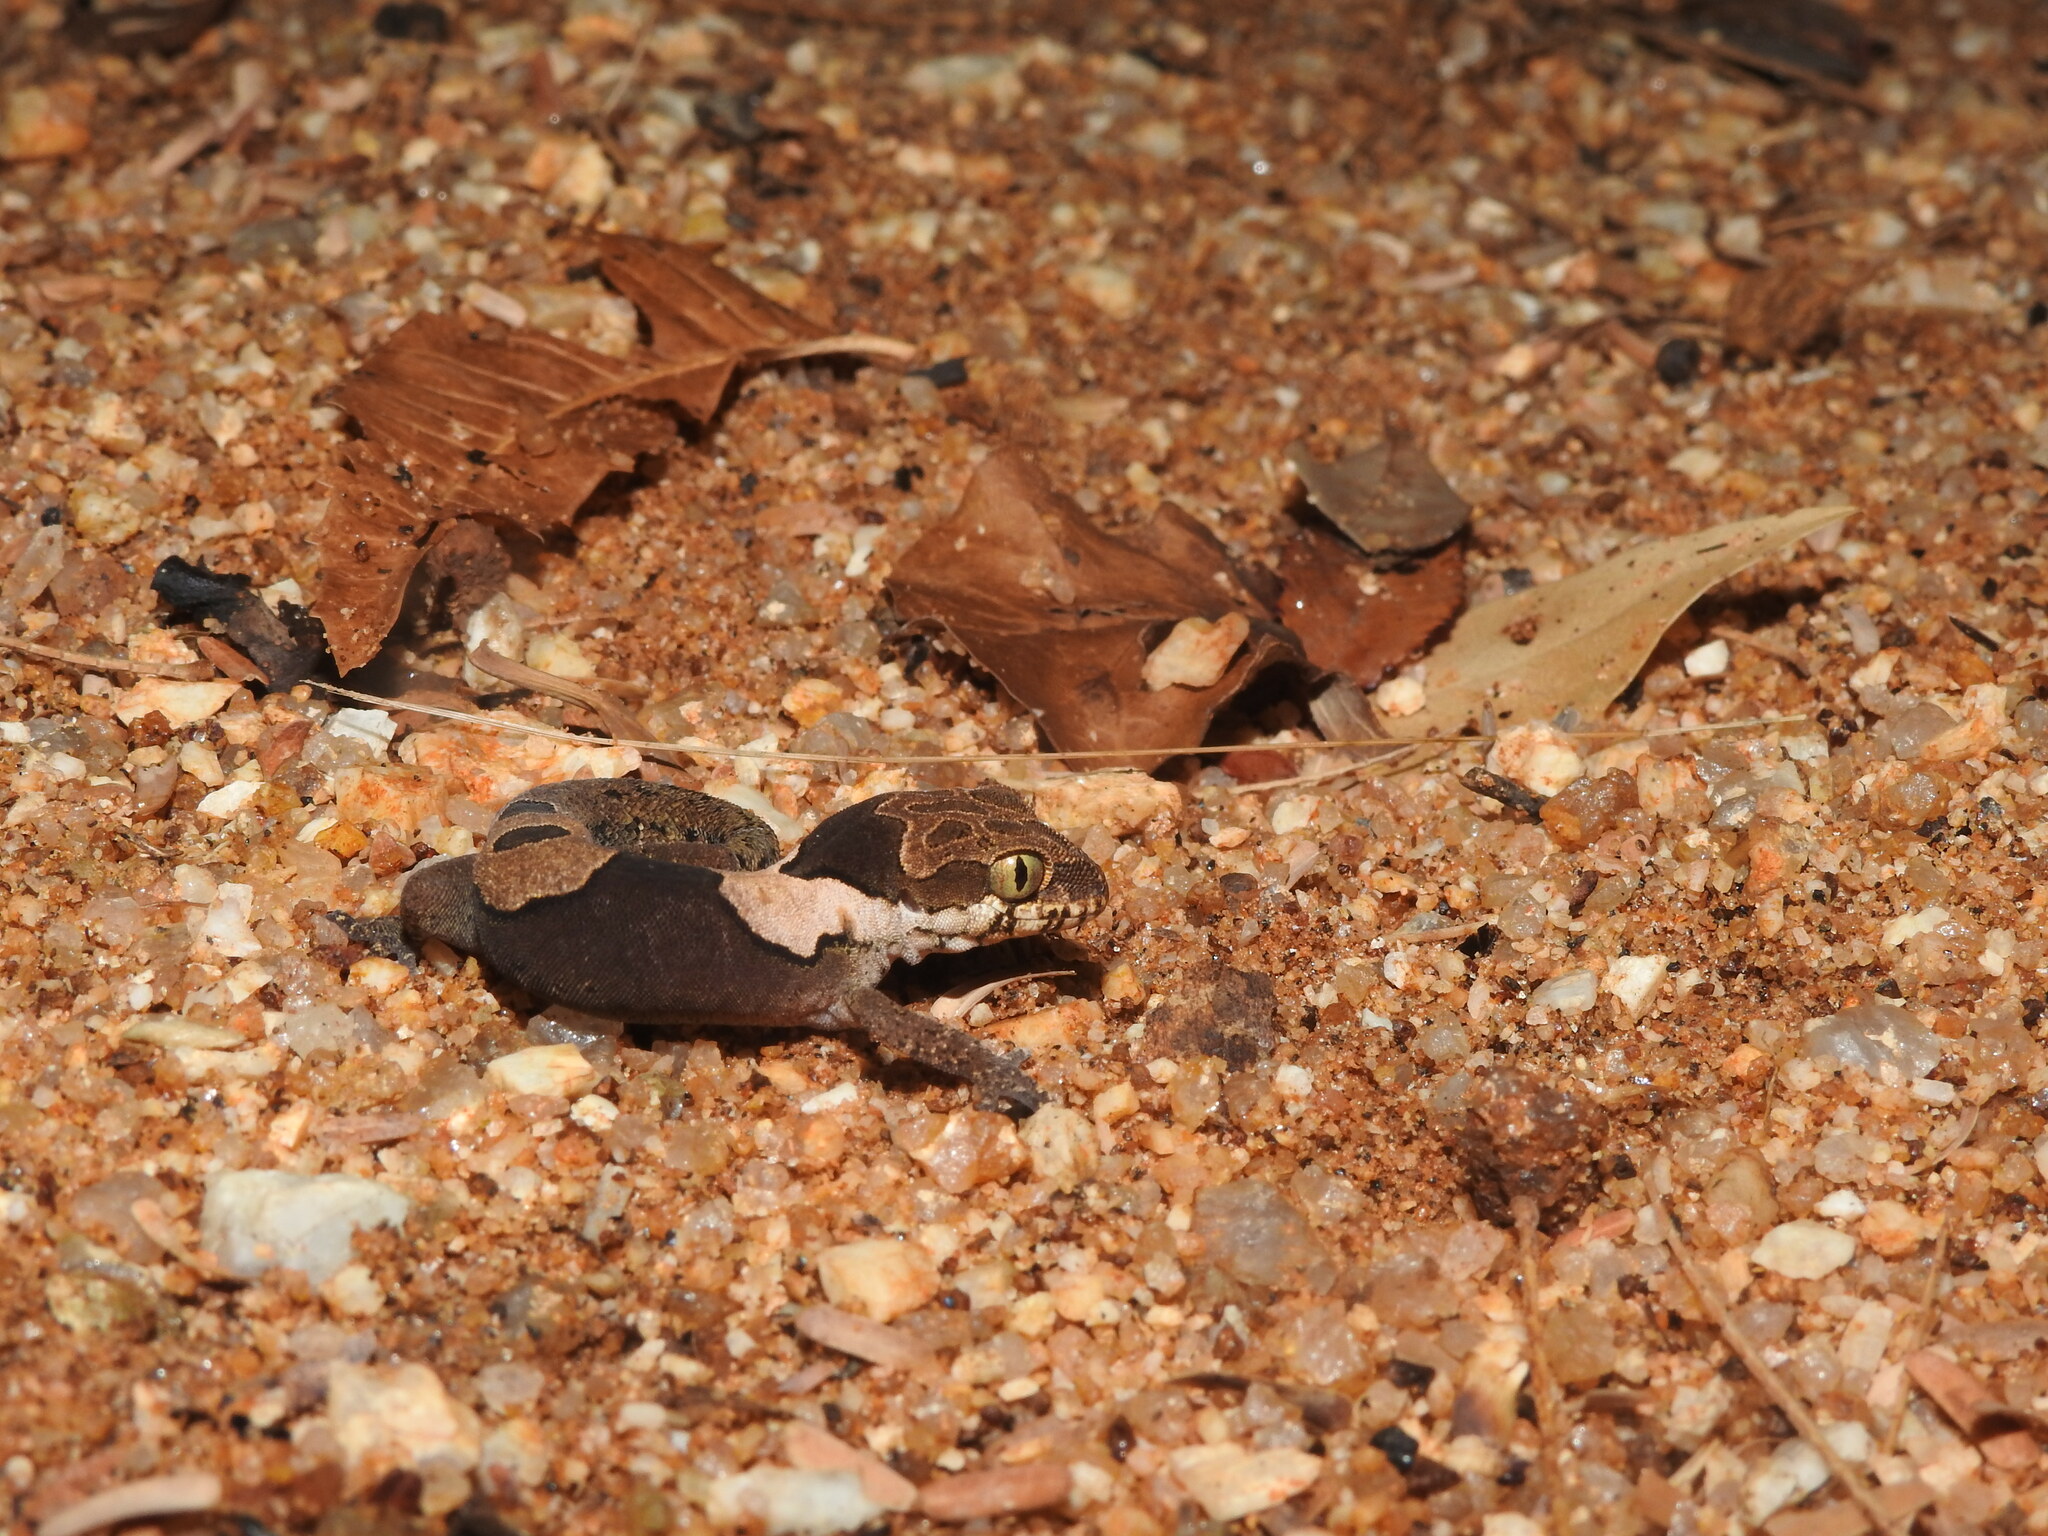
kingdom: Animalia
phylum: Chordata
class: Squamata
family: Gekkonidae
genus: Cyrtodactylus
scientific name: Cyrtodactylus aravindi
